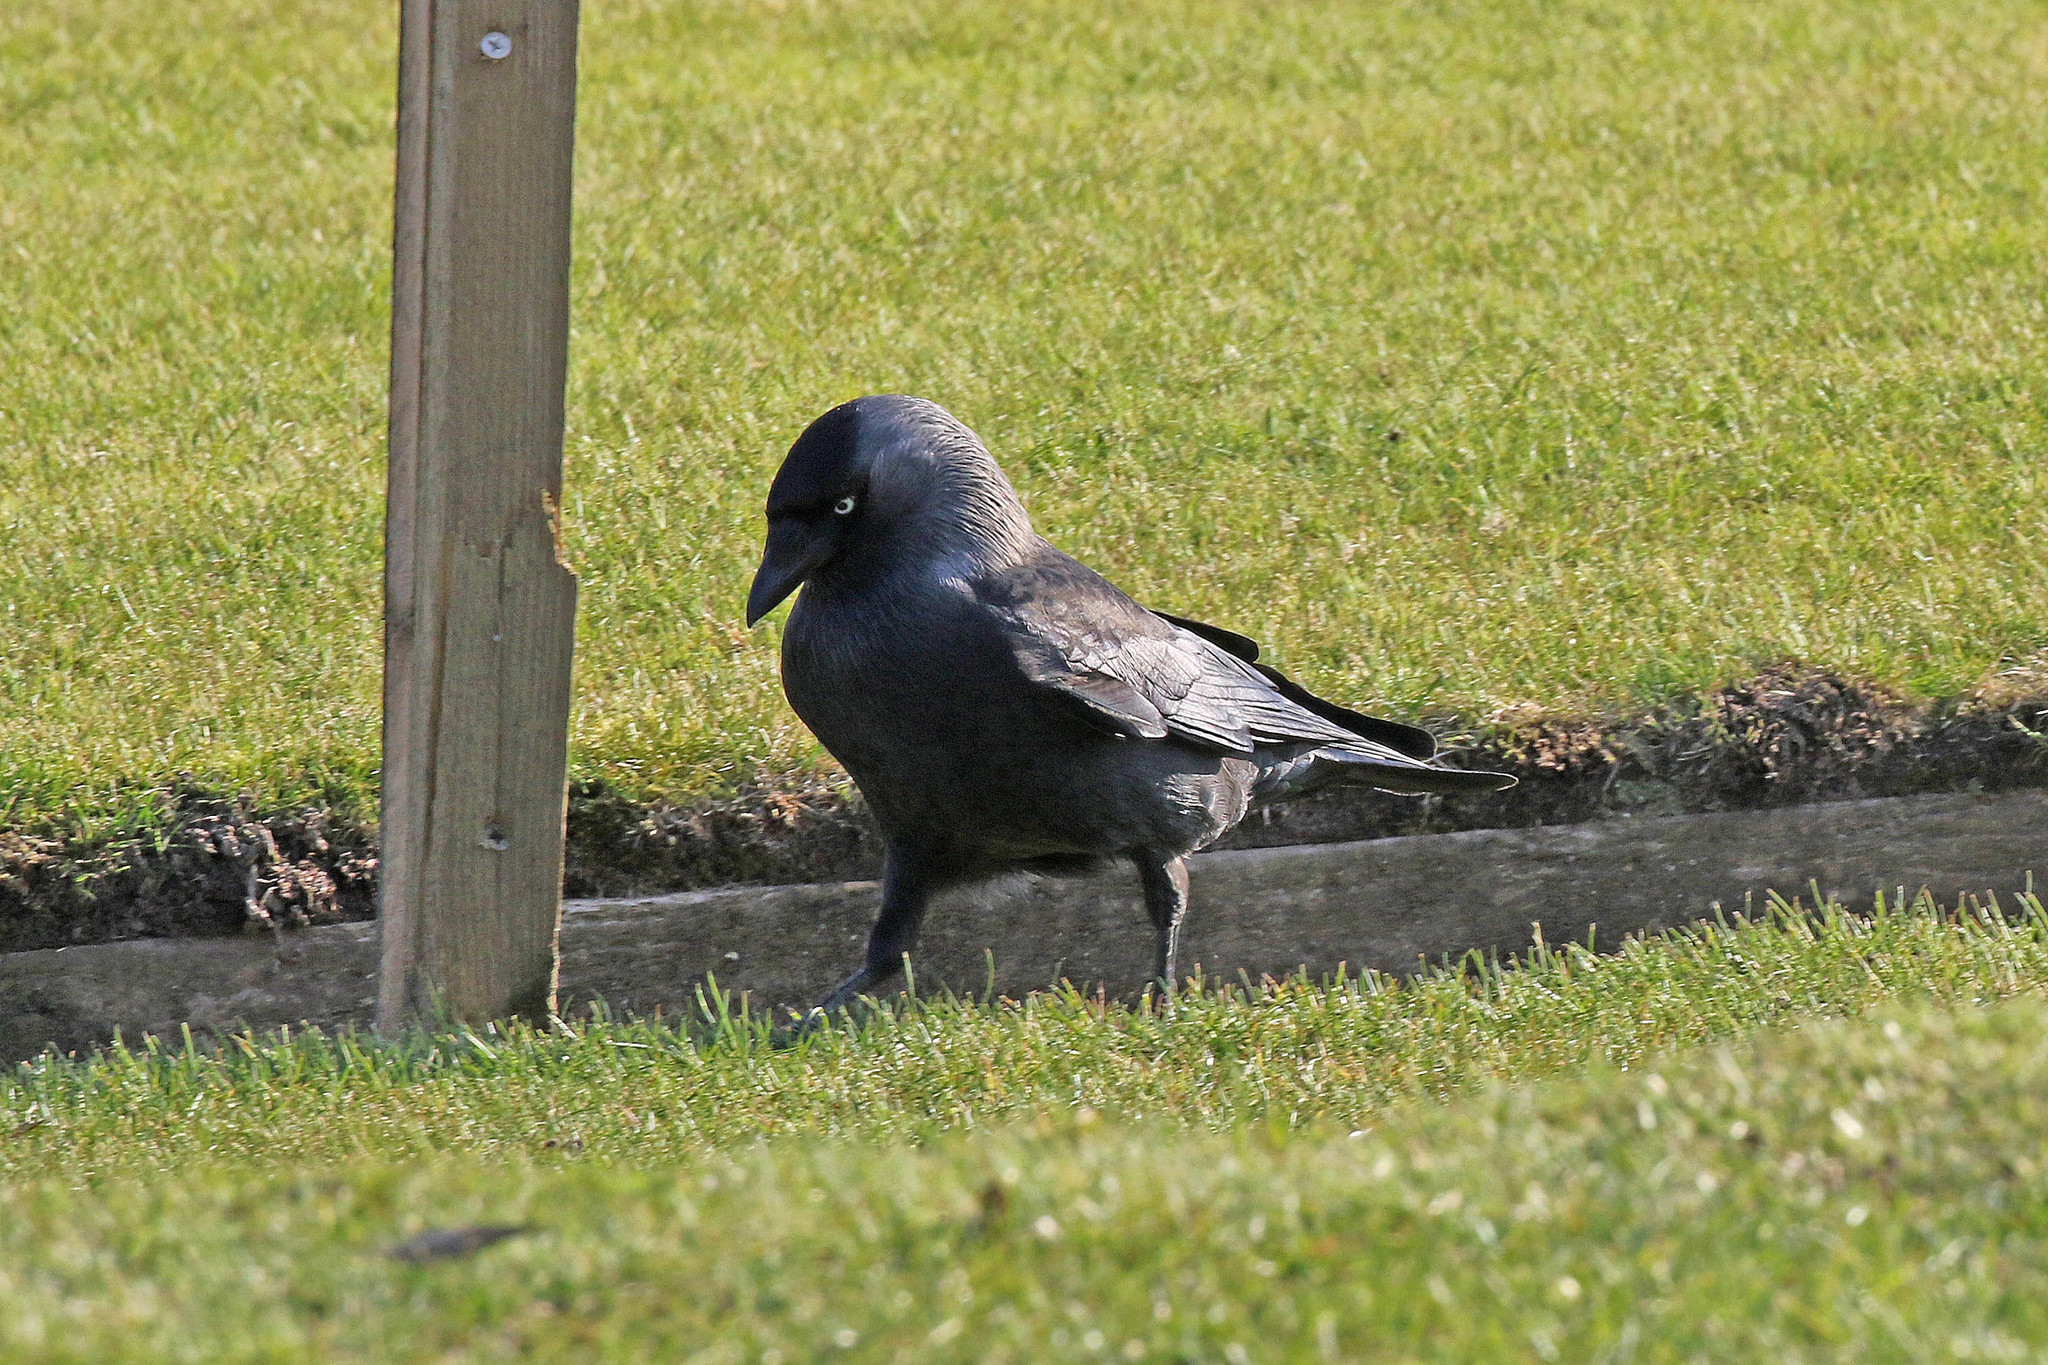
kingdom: Animalia
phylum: Chordata
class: Aves
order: Passeriformes
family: Corvidae
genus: Coloeus
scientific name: Coloeus monedula
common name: Western jackdaw
